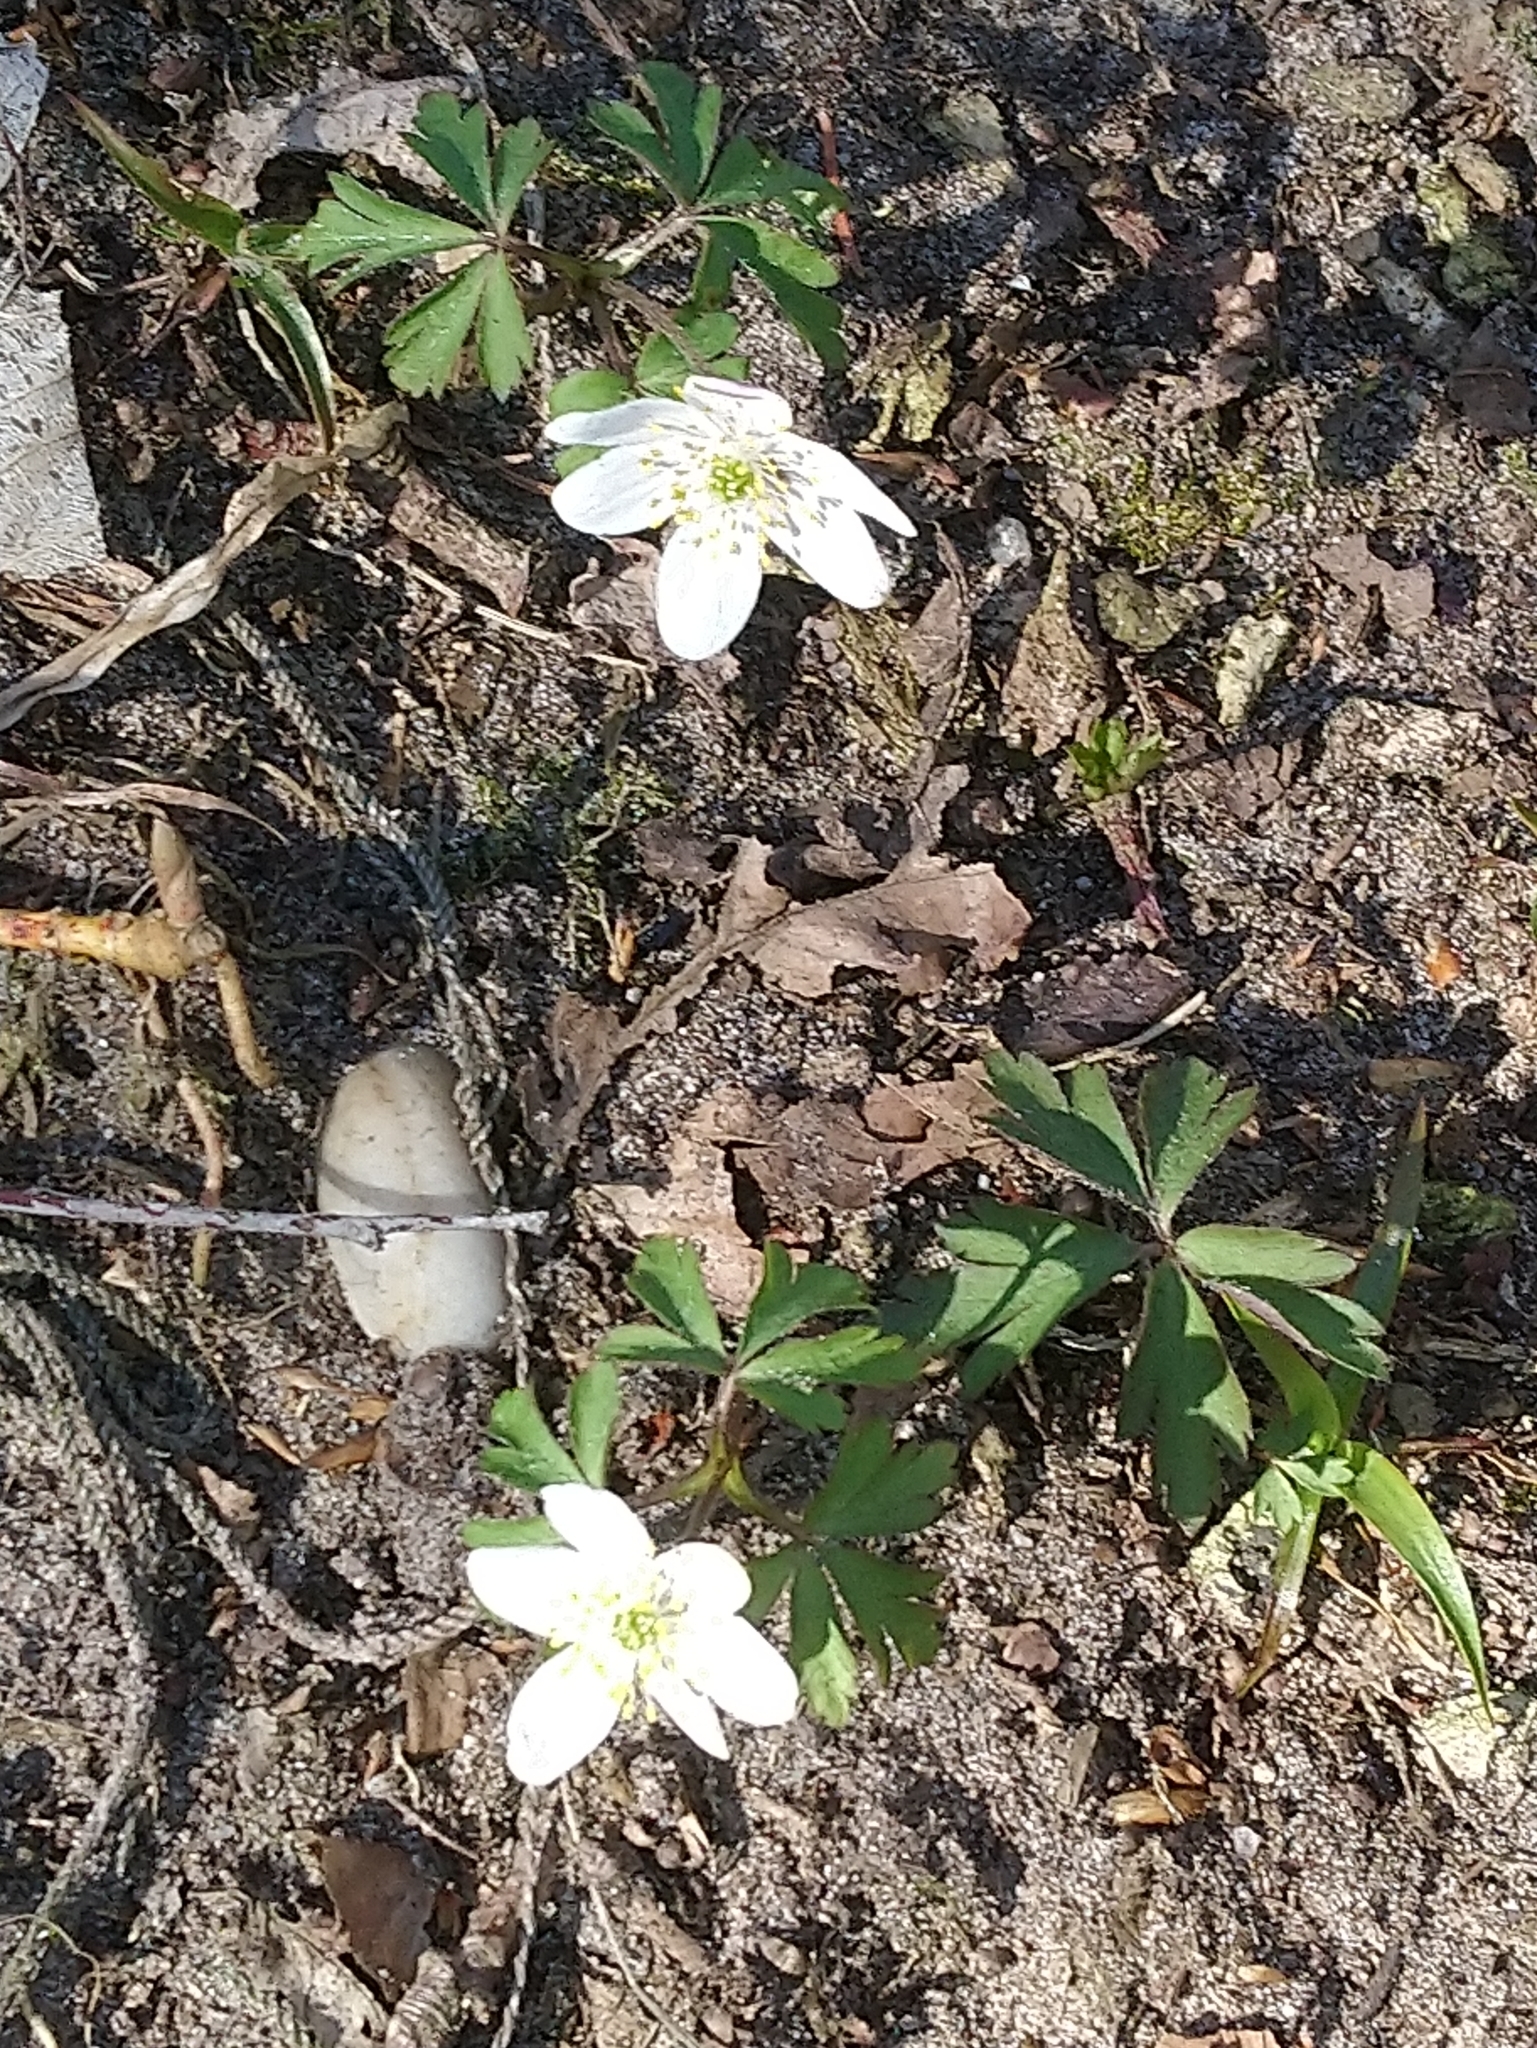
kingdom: Plantae
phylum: Tracheophyta
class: Magnoliopsida
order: Ranunculales
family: Ranunculaceae
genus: Anemone
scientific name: Anemone nemorosa
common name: Wood anemone
